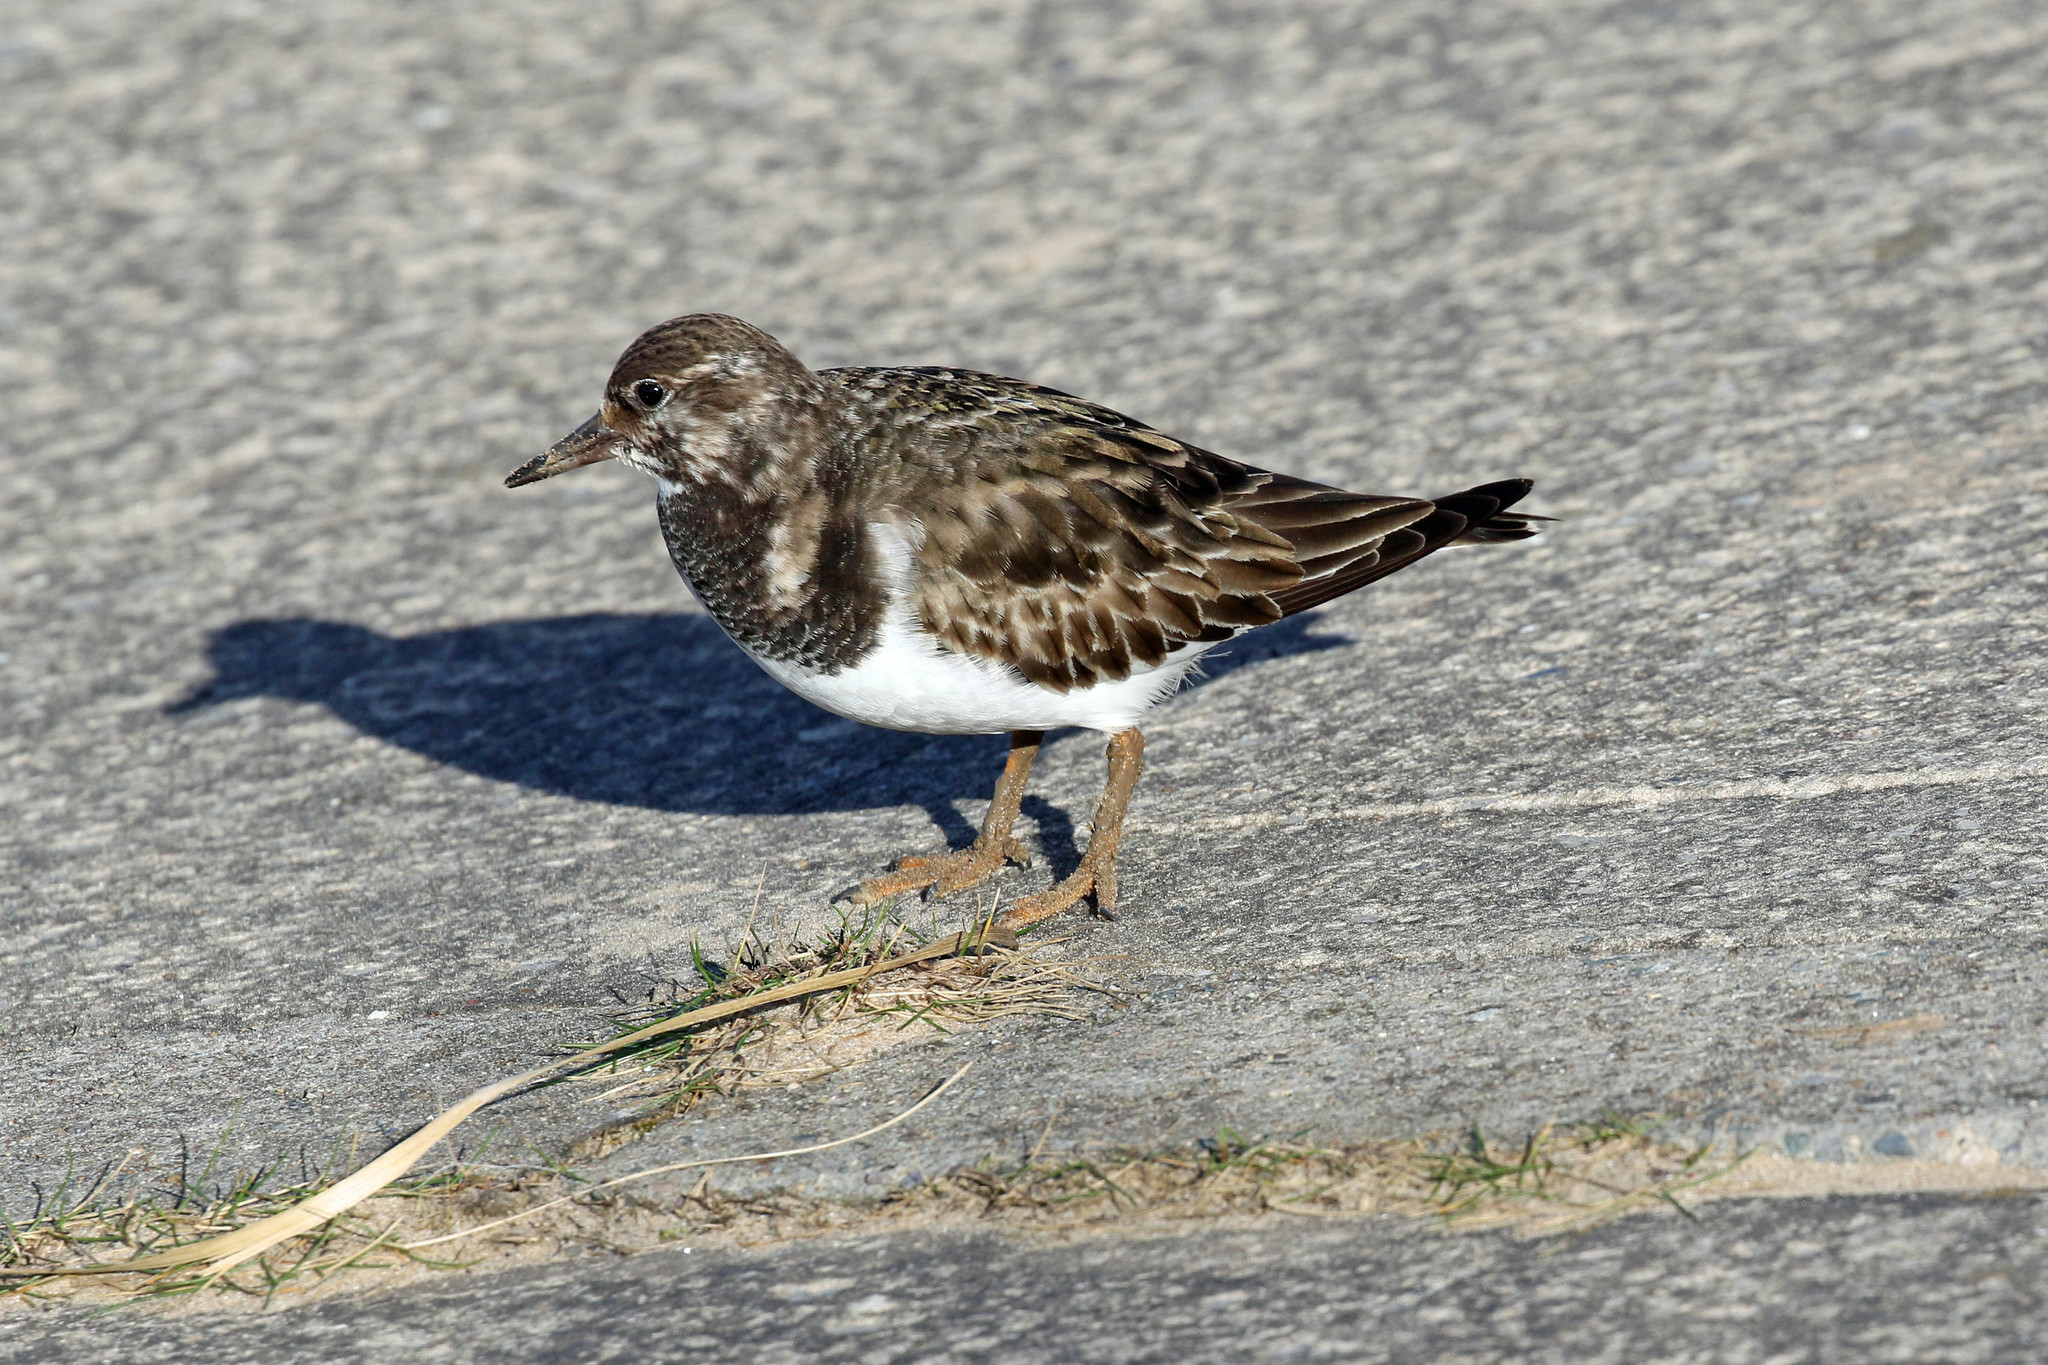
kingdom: Animalia
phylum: Chordata
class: Aves
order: Charadriiformes
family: Scolopacidae
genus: Arenaria
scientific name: Arenaria interpres
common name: Ruddy turnstone
